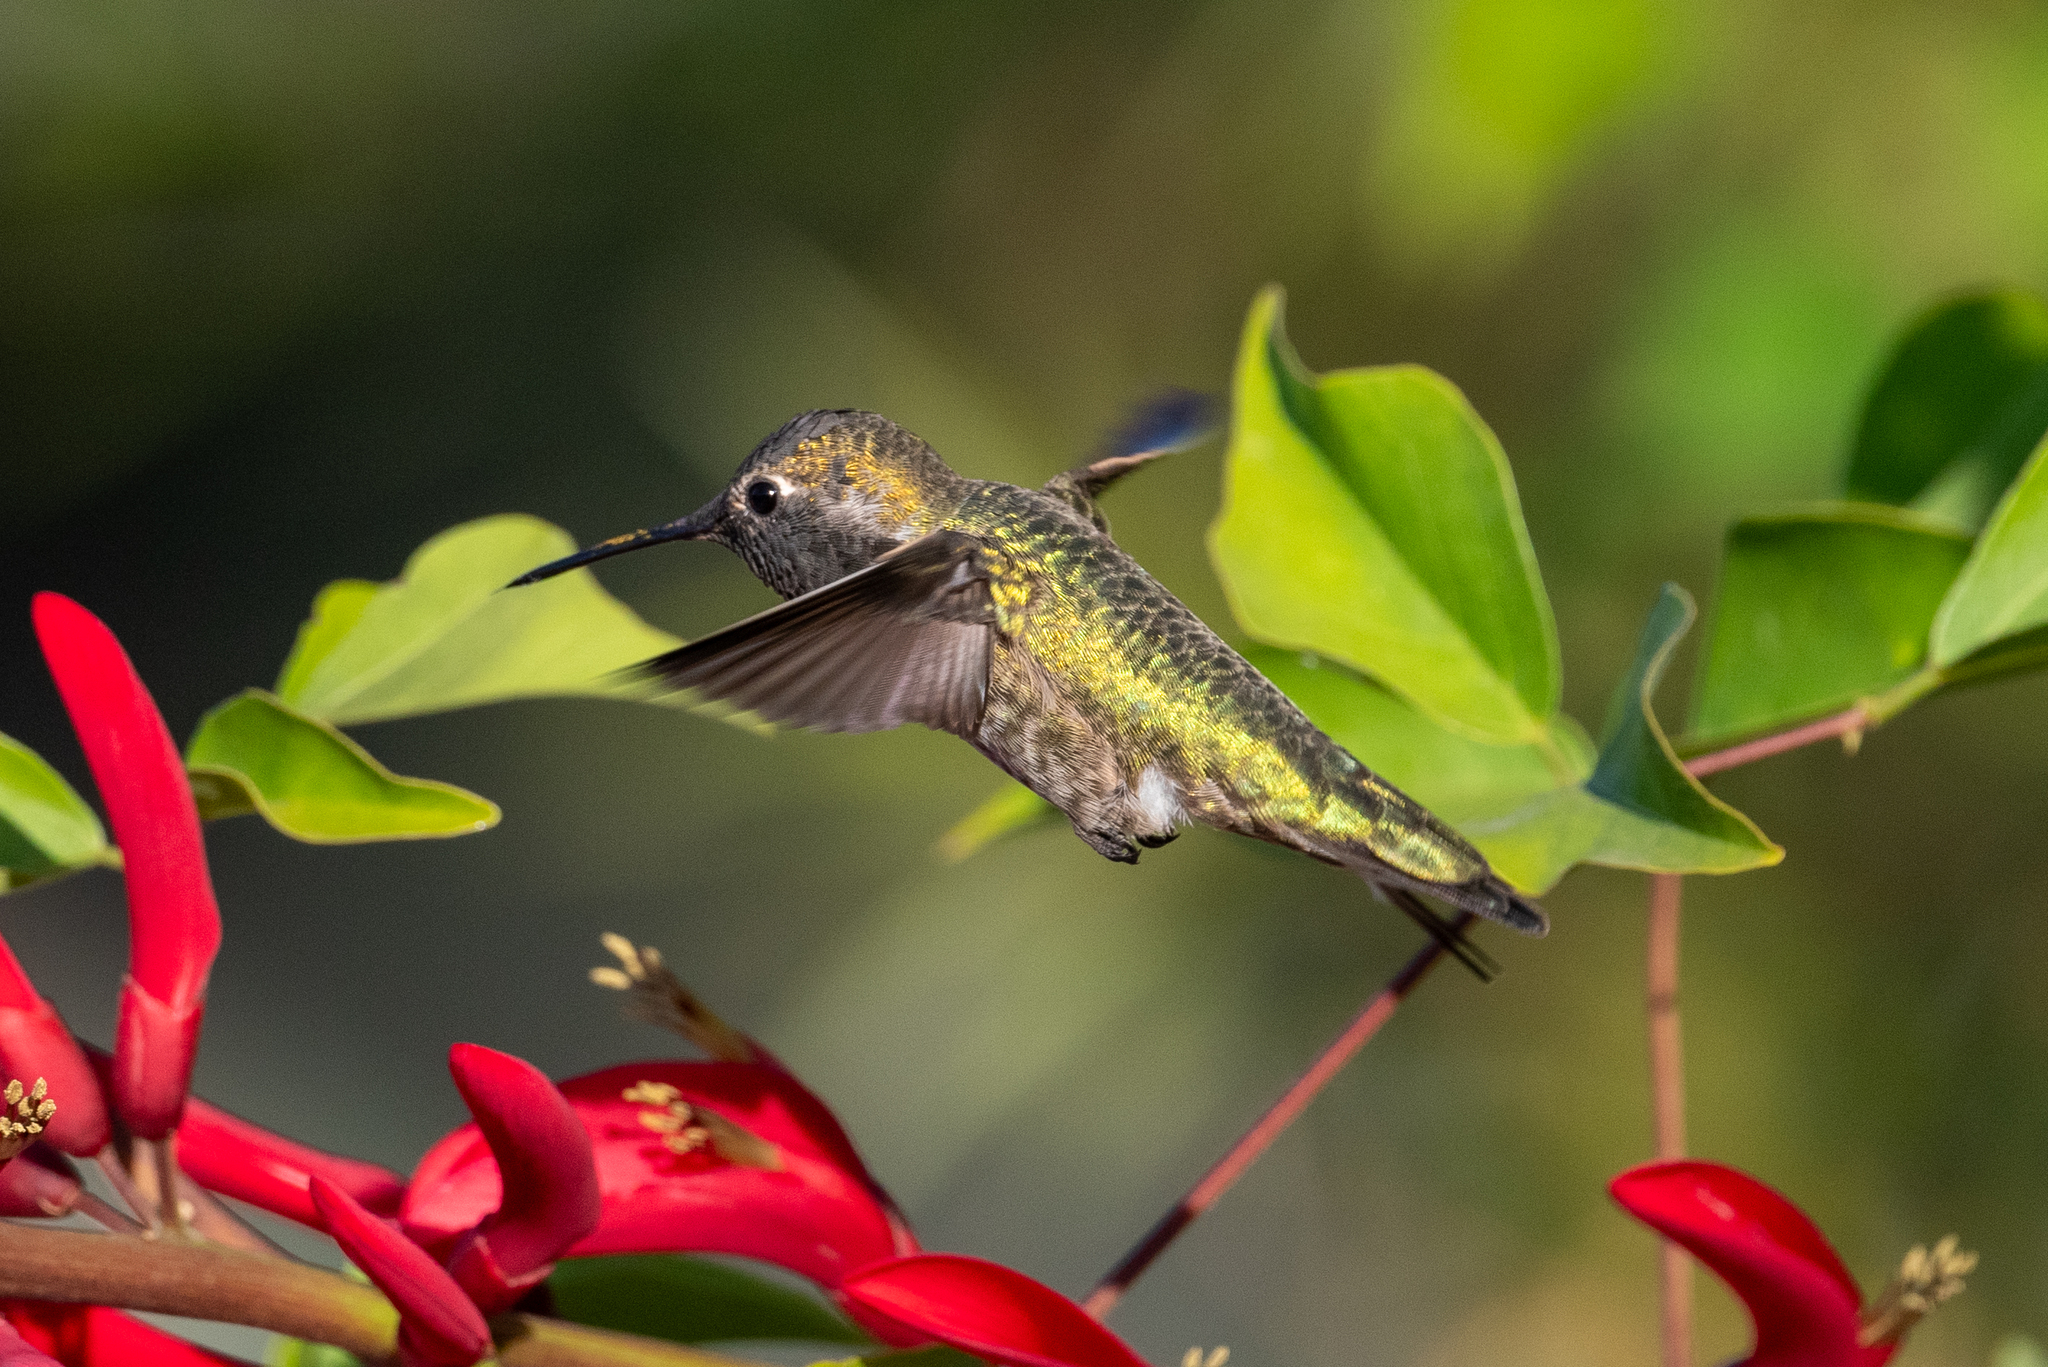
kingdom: Animalia
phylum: Chordata
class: Aves
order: Apodiformes
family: Trochilidae
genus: Calypte
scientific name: Calypte anna
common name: Anna's hummingbird
